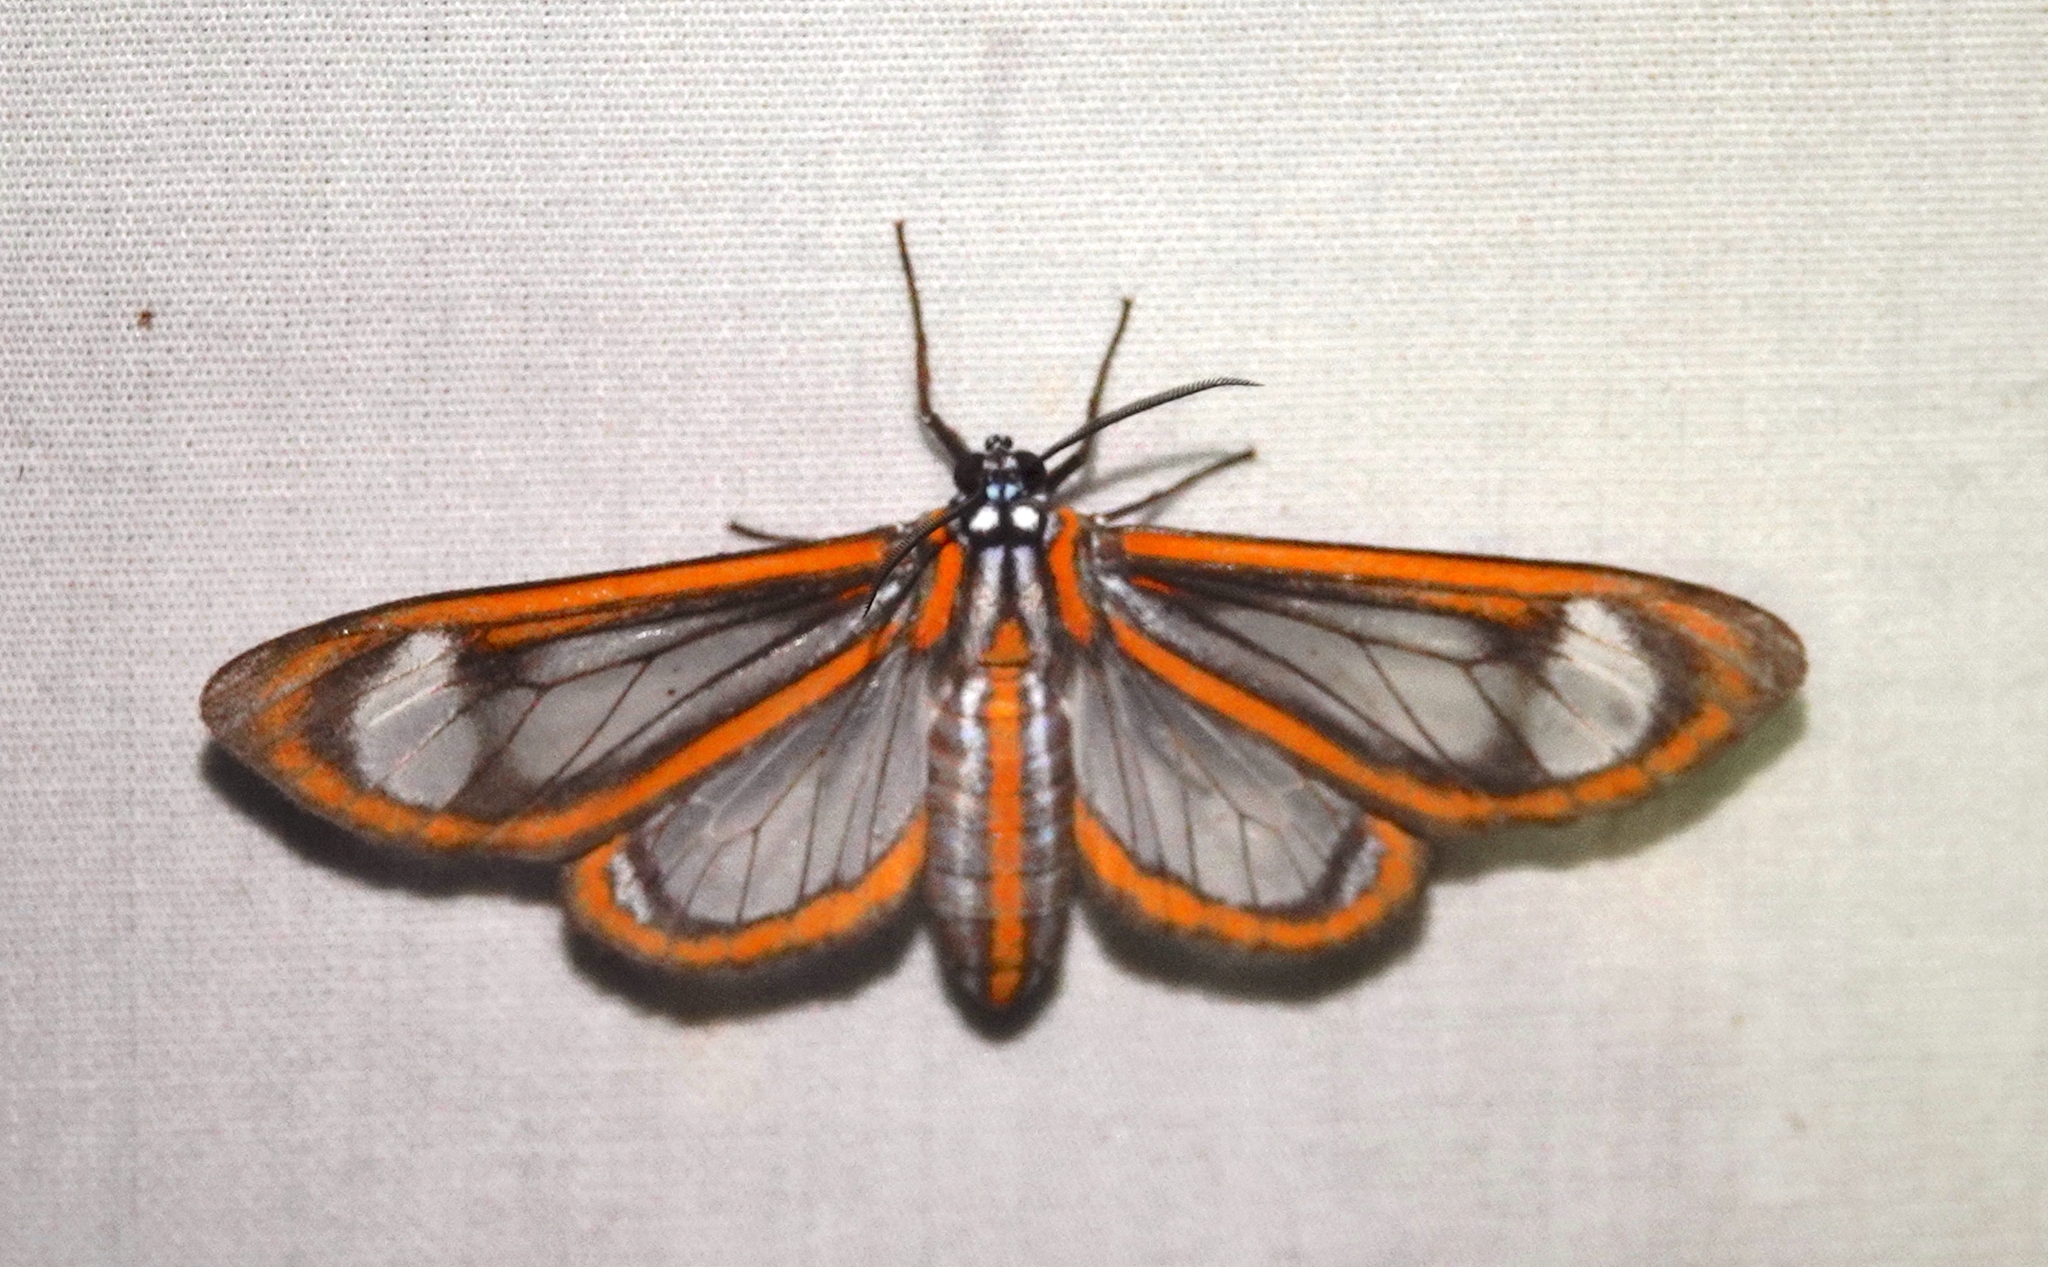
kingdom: Animalia
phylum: Arthropoda
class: Insecta
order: Lepidoptera
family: Erebidae
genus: Hyalurga
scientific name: Hyalurga dorsilinea
